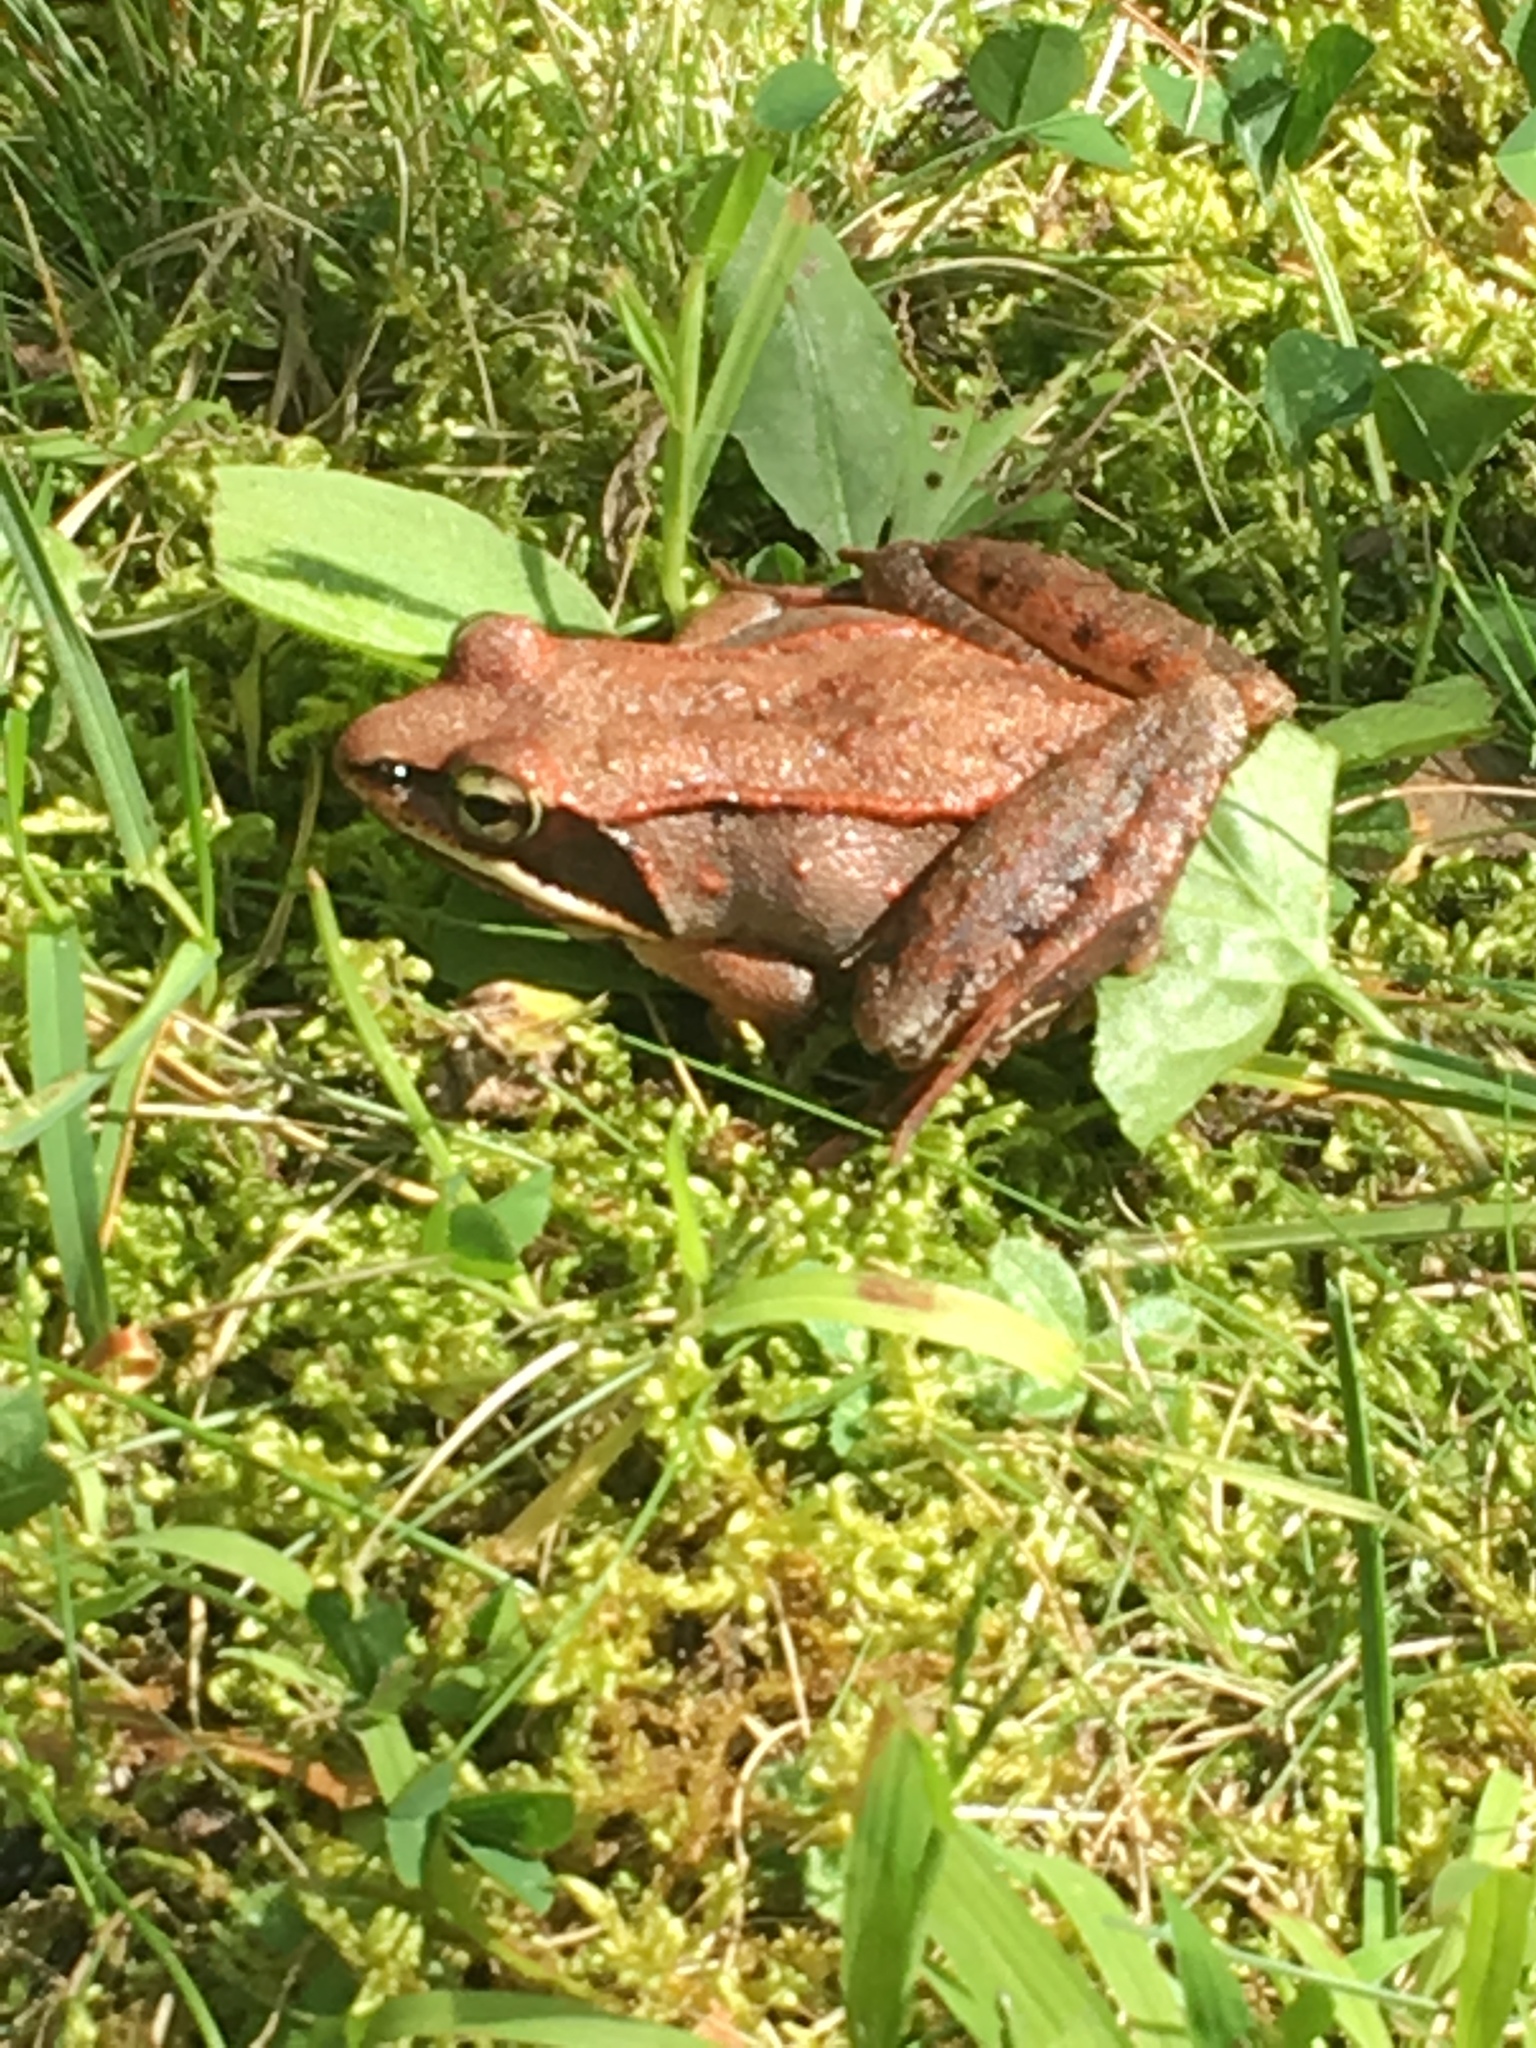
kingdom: Animalia
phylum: Chordata
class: Amphibia
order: Anura
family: Ranidae
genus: Lithobates
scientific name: Lithobates sylvaticus
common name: Wood frog
